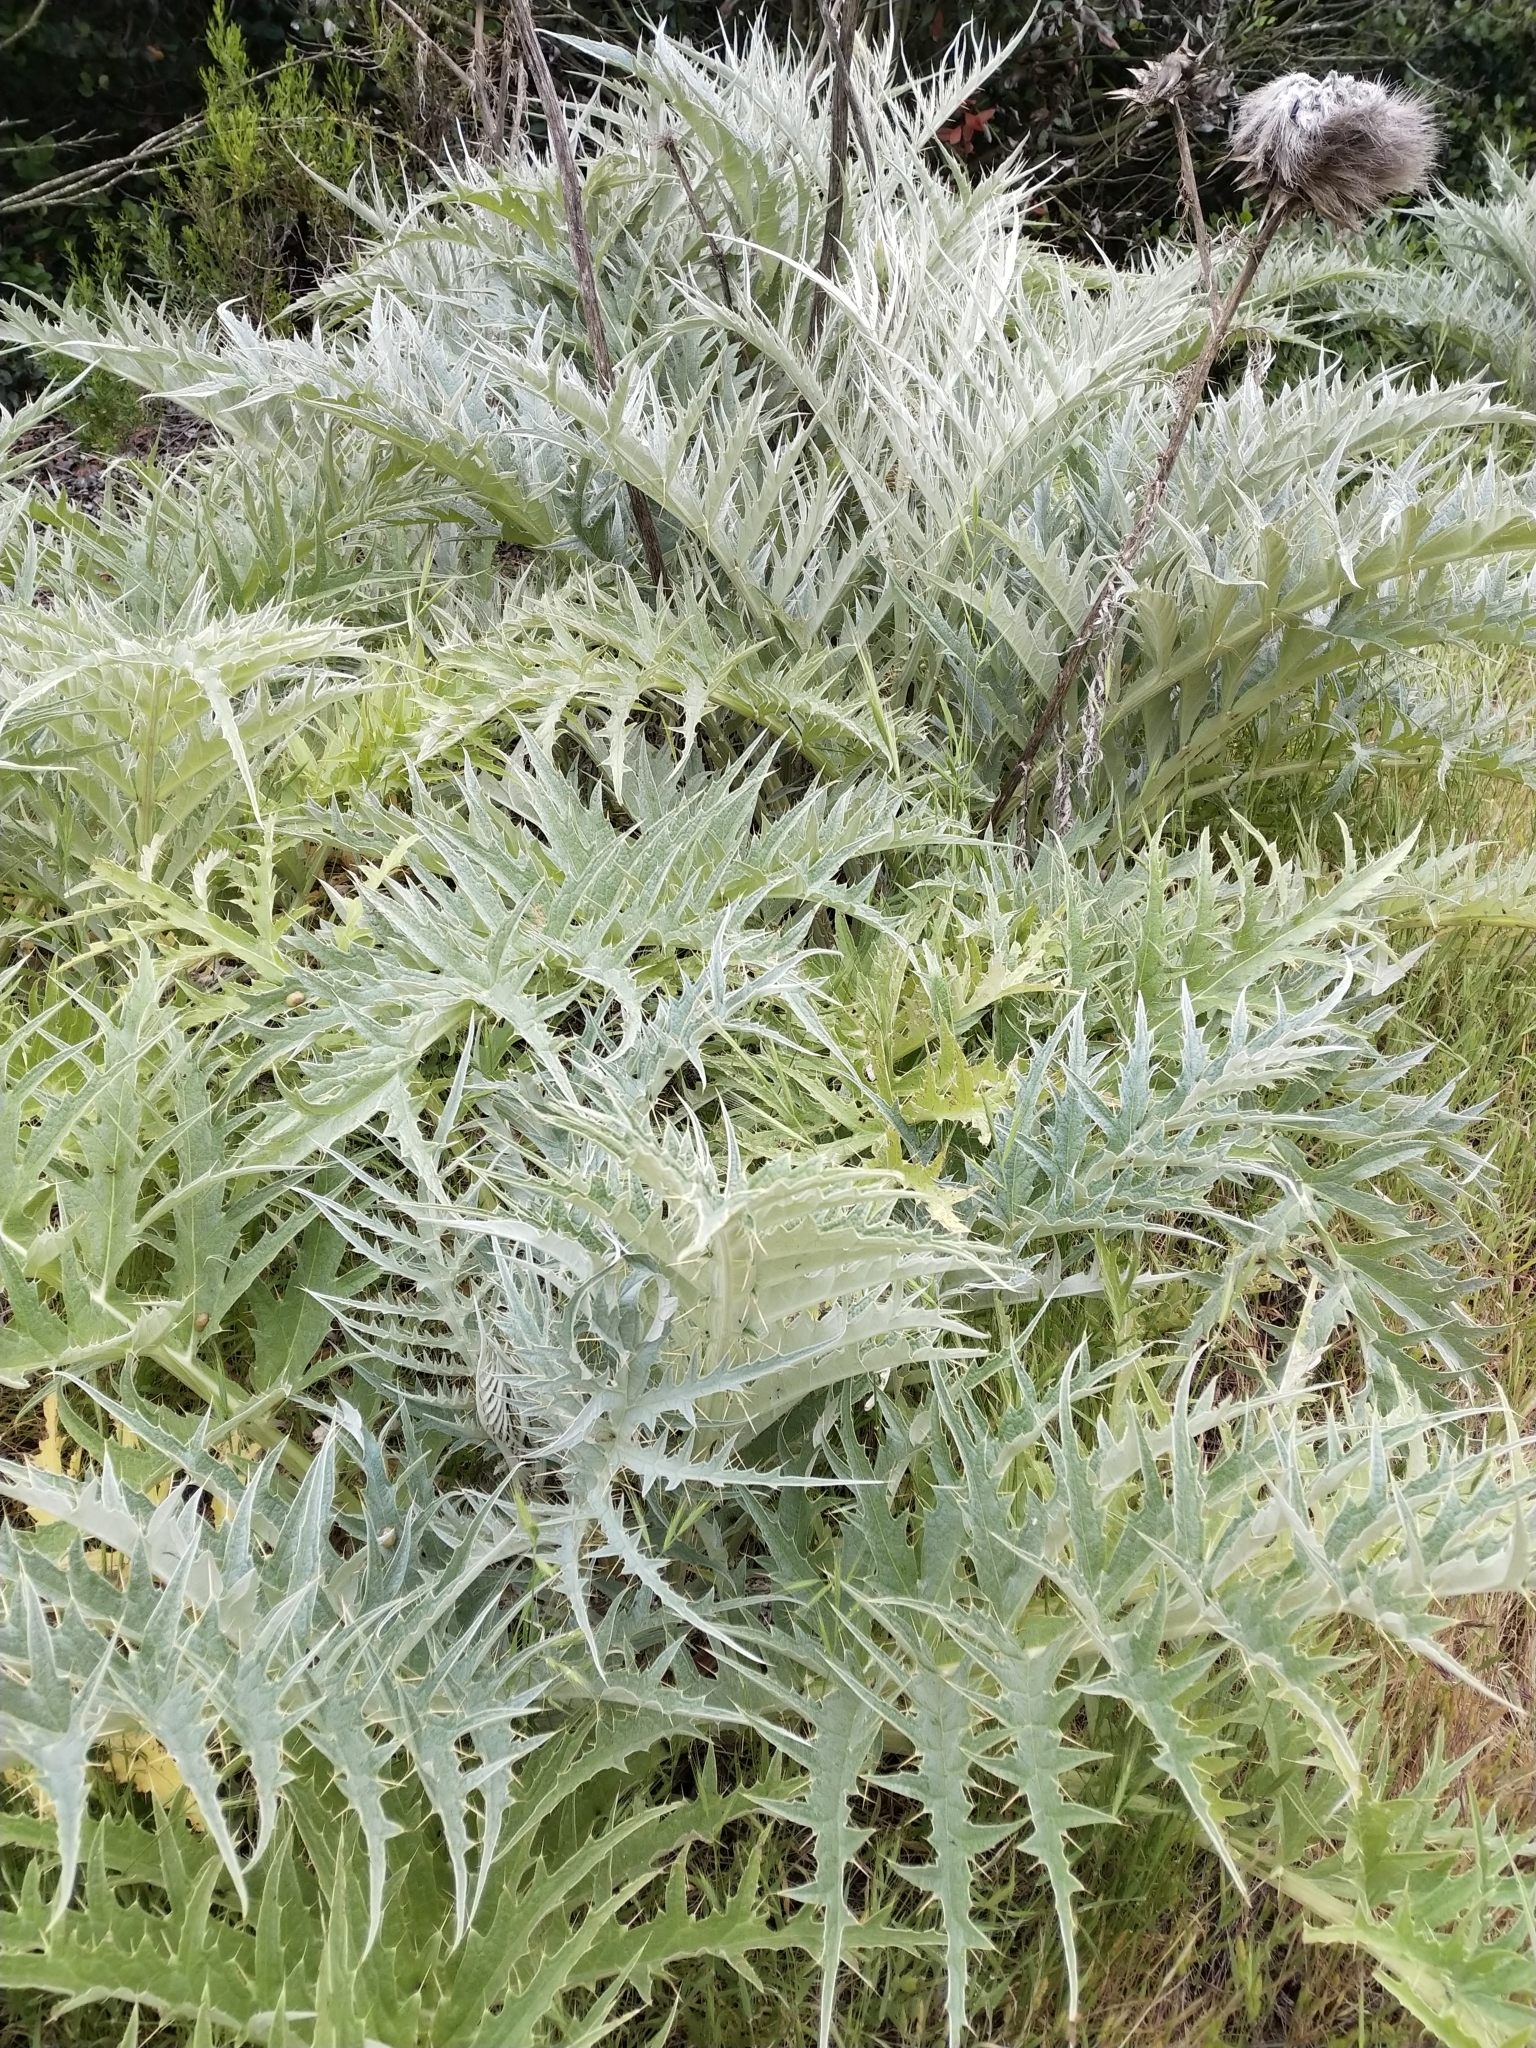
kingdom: Plantae
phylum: Tracheophyta
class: Magnoliopsida
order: Asterales
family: Asteraceae
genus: Cynara
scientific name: Cynara cardunculus
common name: Globe artichoke
